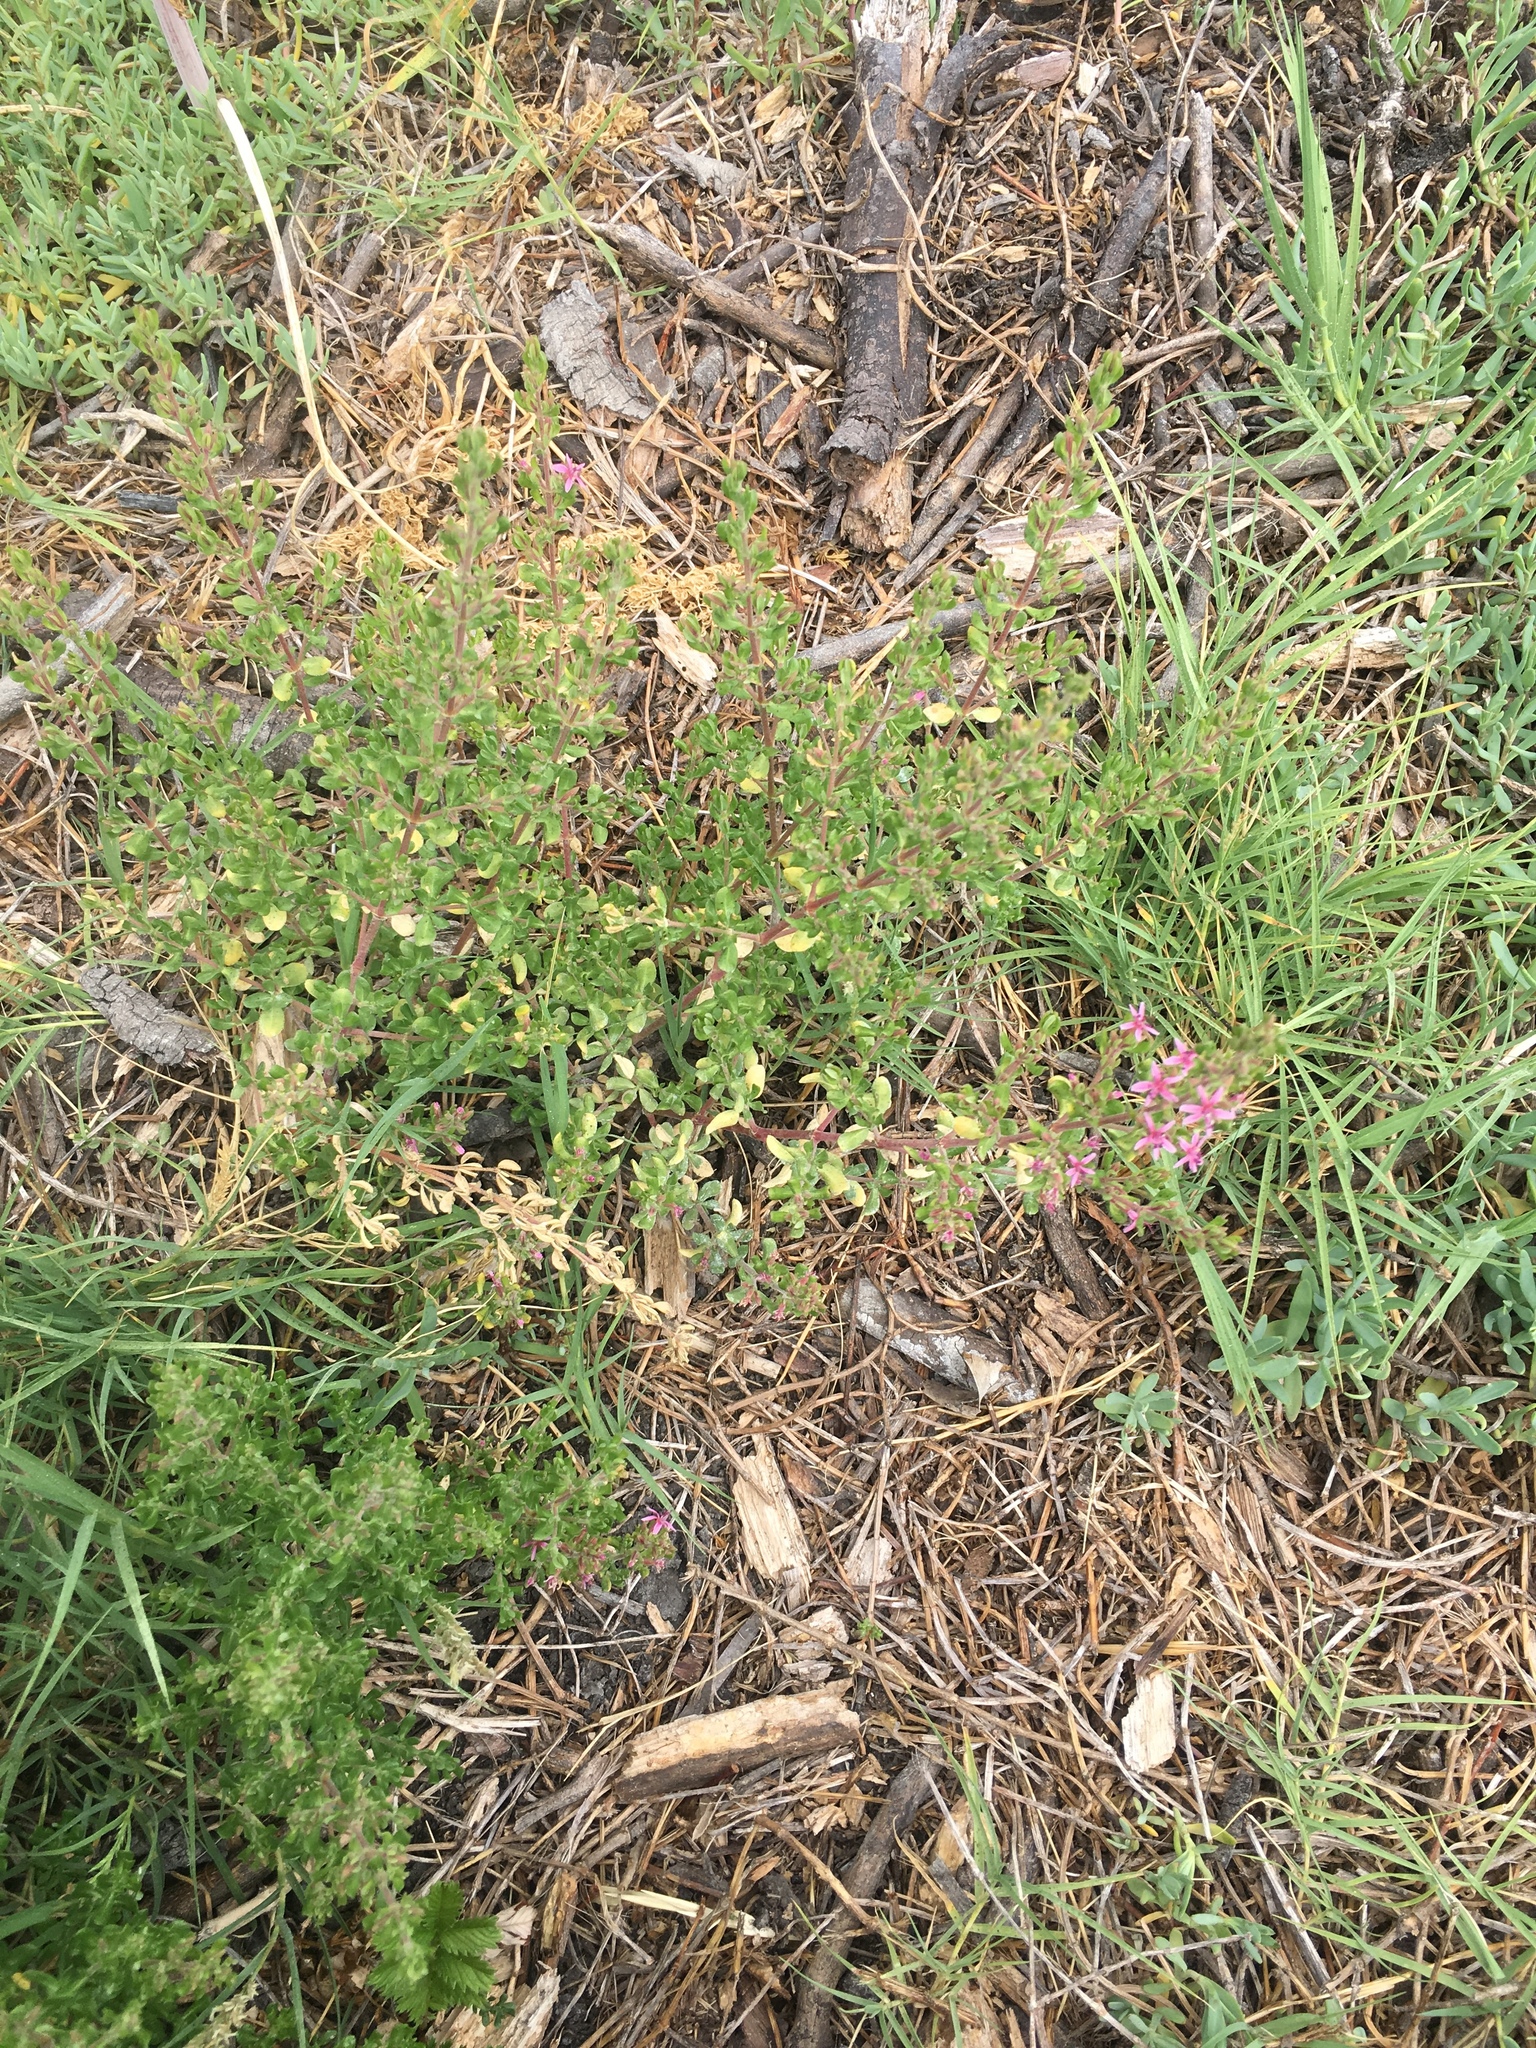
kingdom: Plantae
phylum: Tracheophyta
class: Magnoliopsida
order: Caryophyllales
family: Frankeniaceae
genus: Frankenia
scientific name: Frankenia salina
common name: Alkali seaheath
